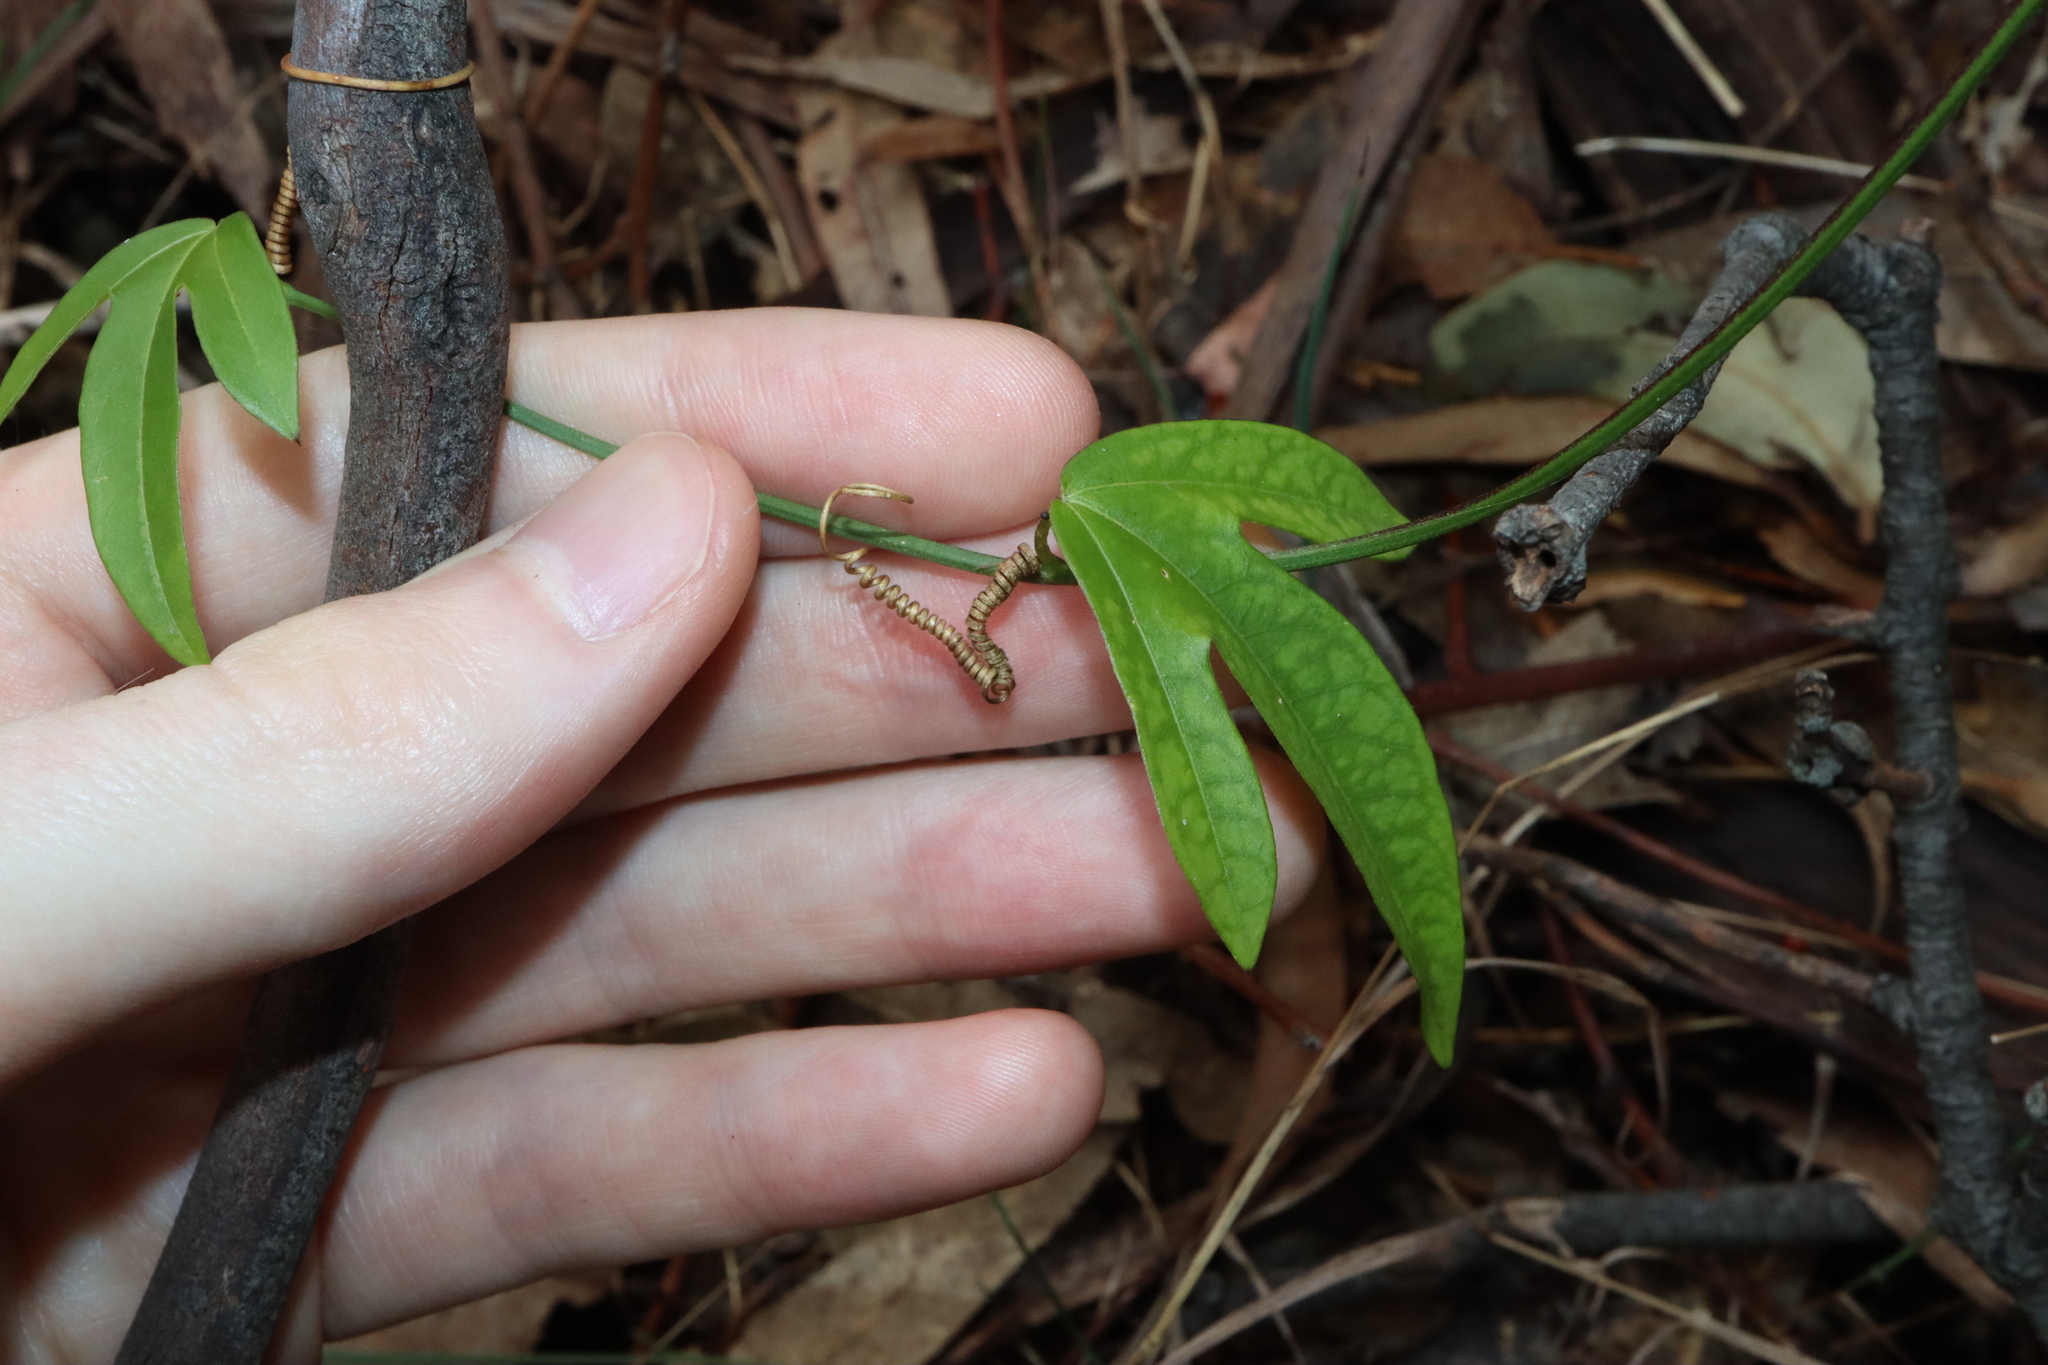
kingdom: Plantae
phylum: Tracheophyta
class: Magnoliopsida
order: Malpighiales
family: Passifloraceae
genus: Passiflora
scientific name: Passiflora suberosa
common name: Wild passionfruit
